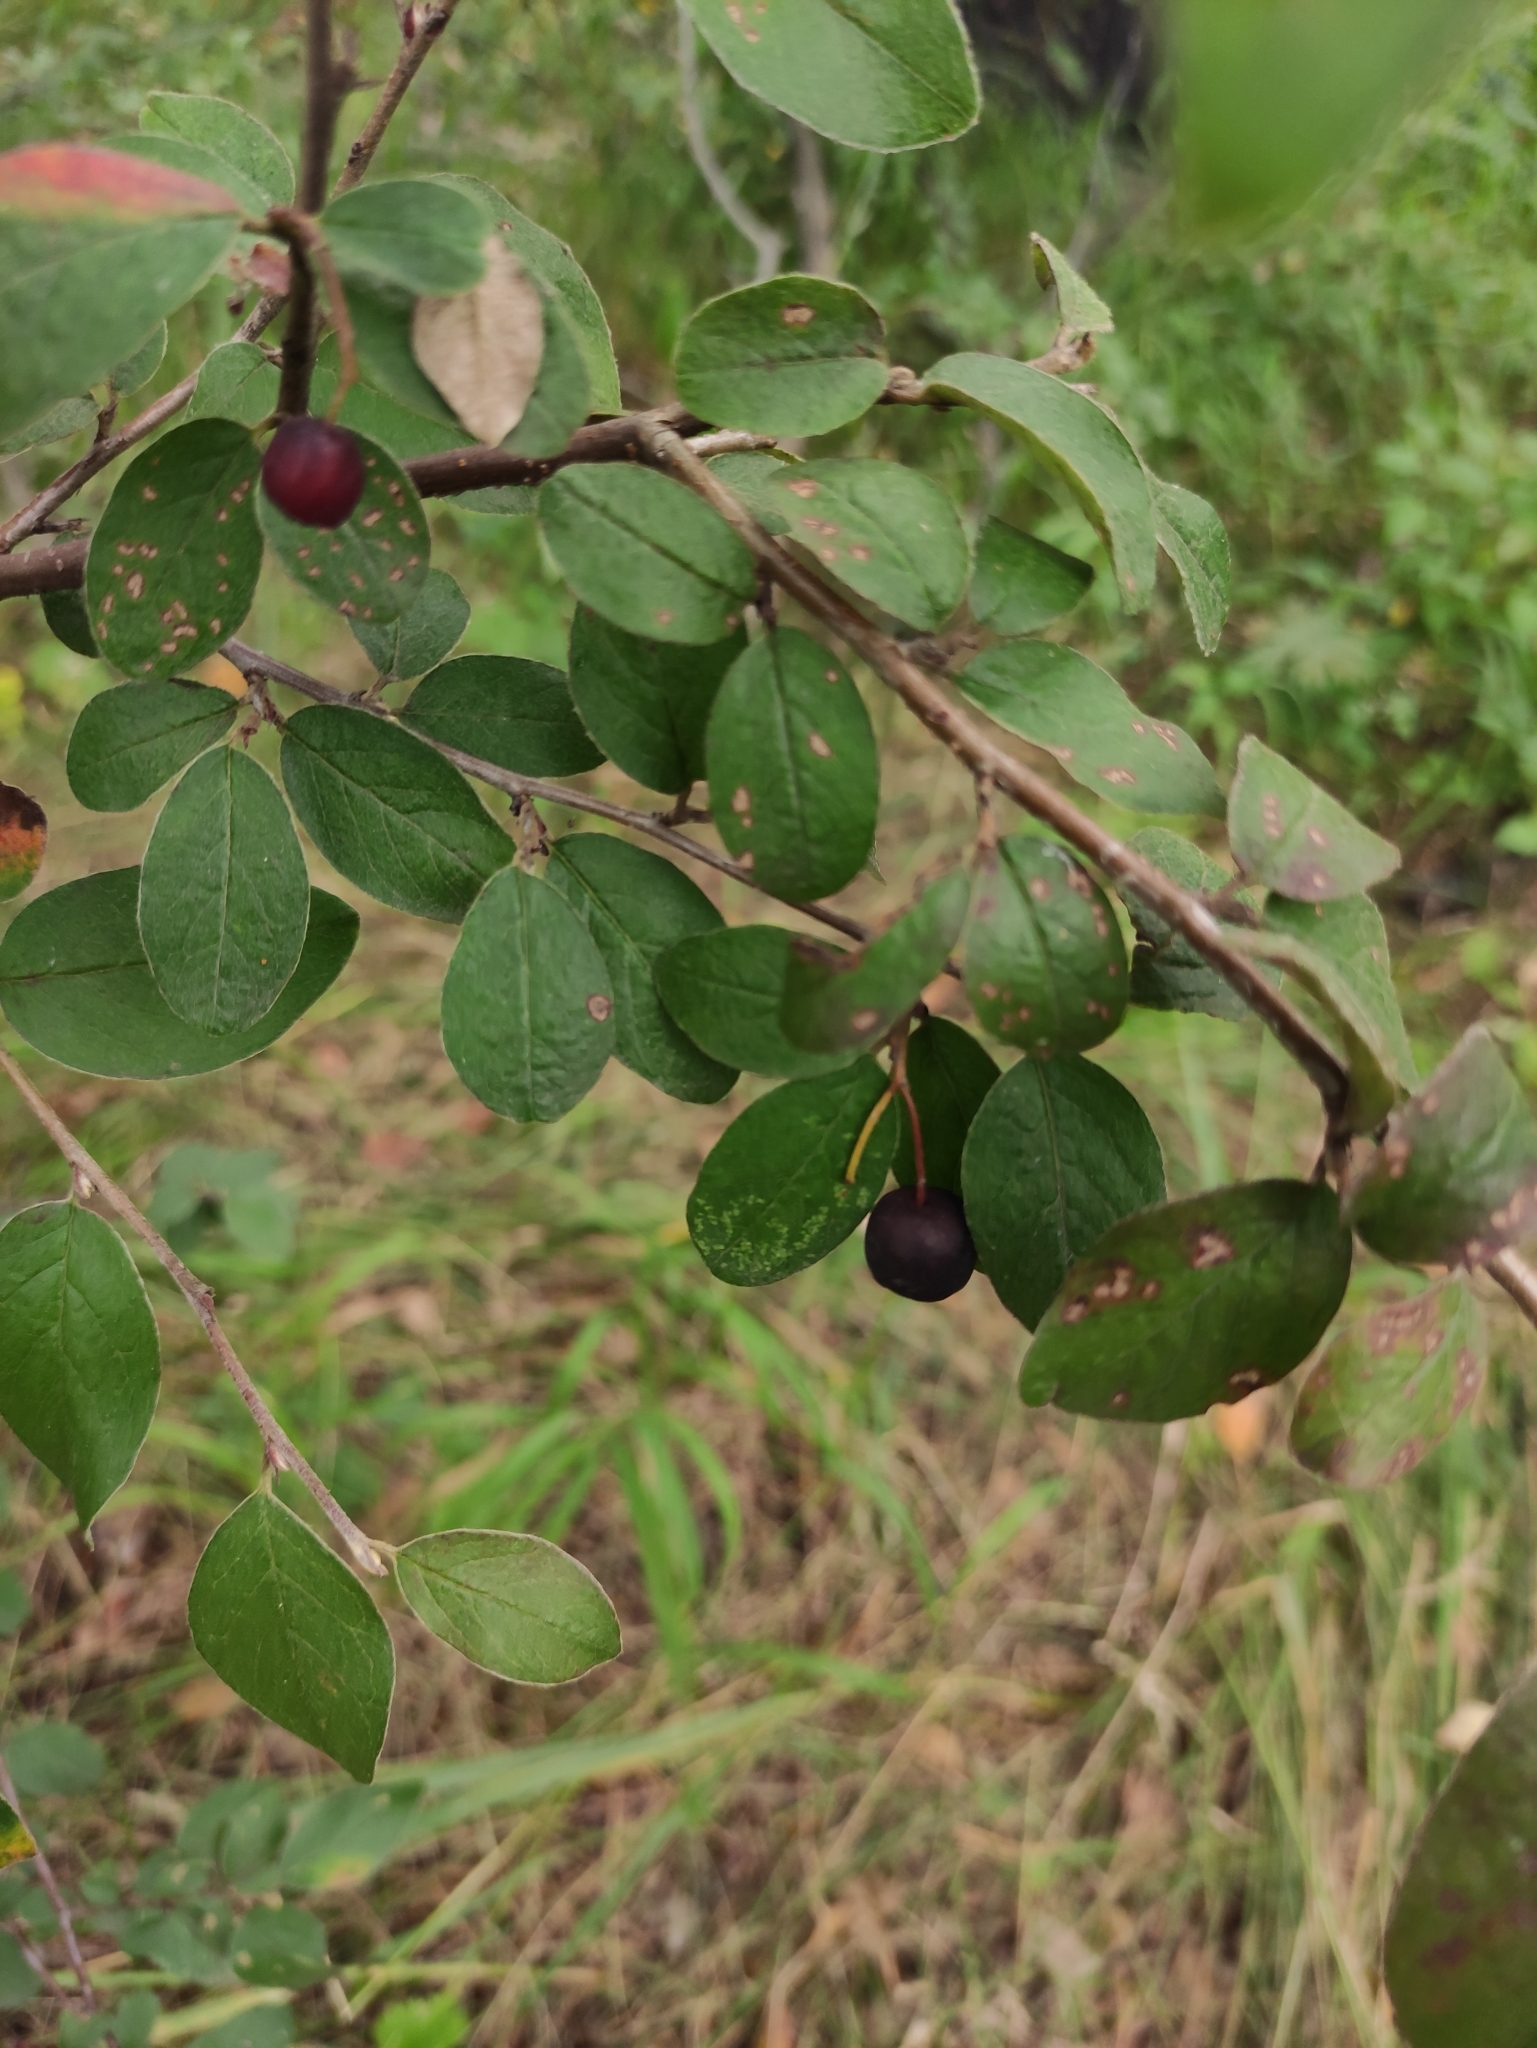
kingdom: Plantae
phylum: Tracheophyta
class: Magnoliopsida
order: Rosales
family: Rosaceae
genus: Cotoneaster
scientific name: Cotoneaster melanocarpus
